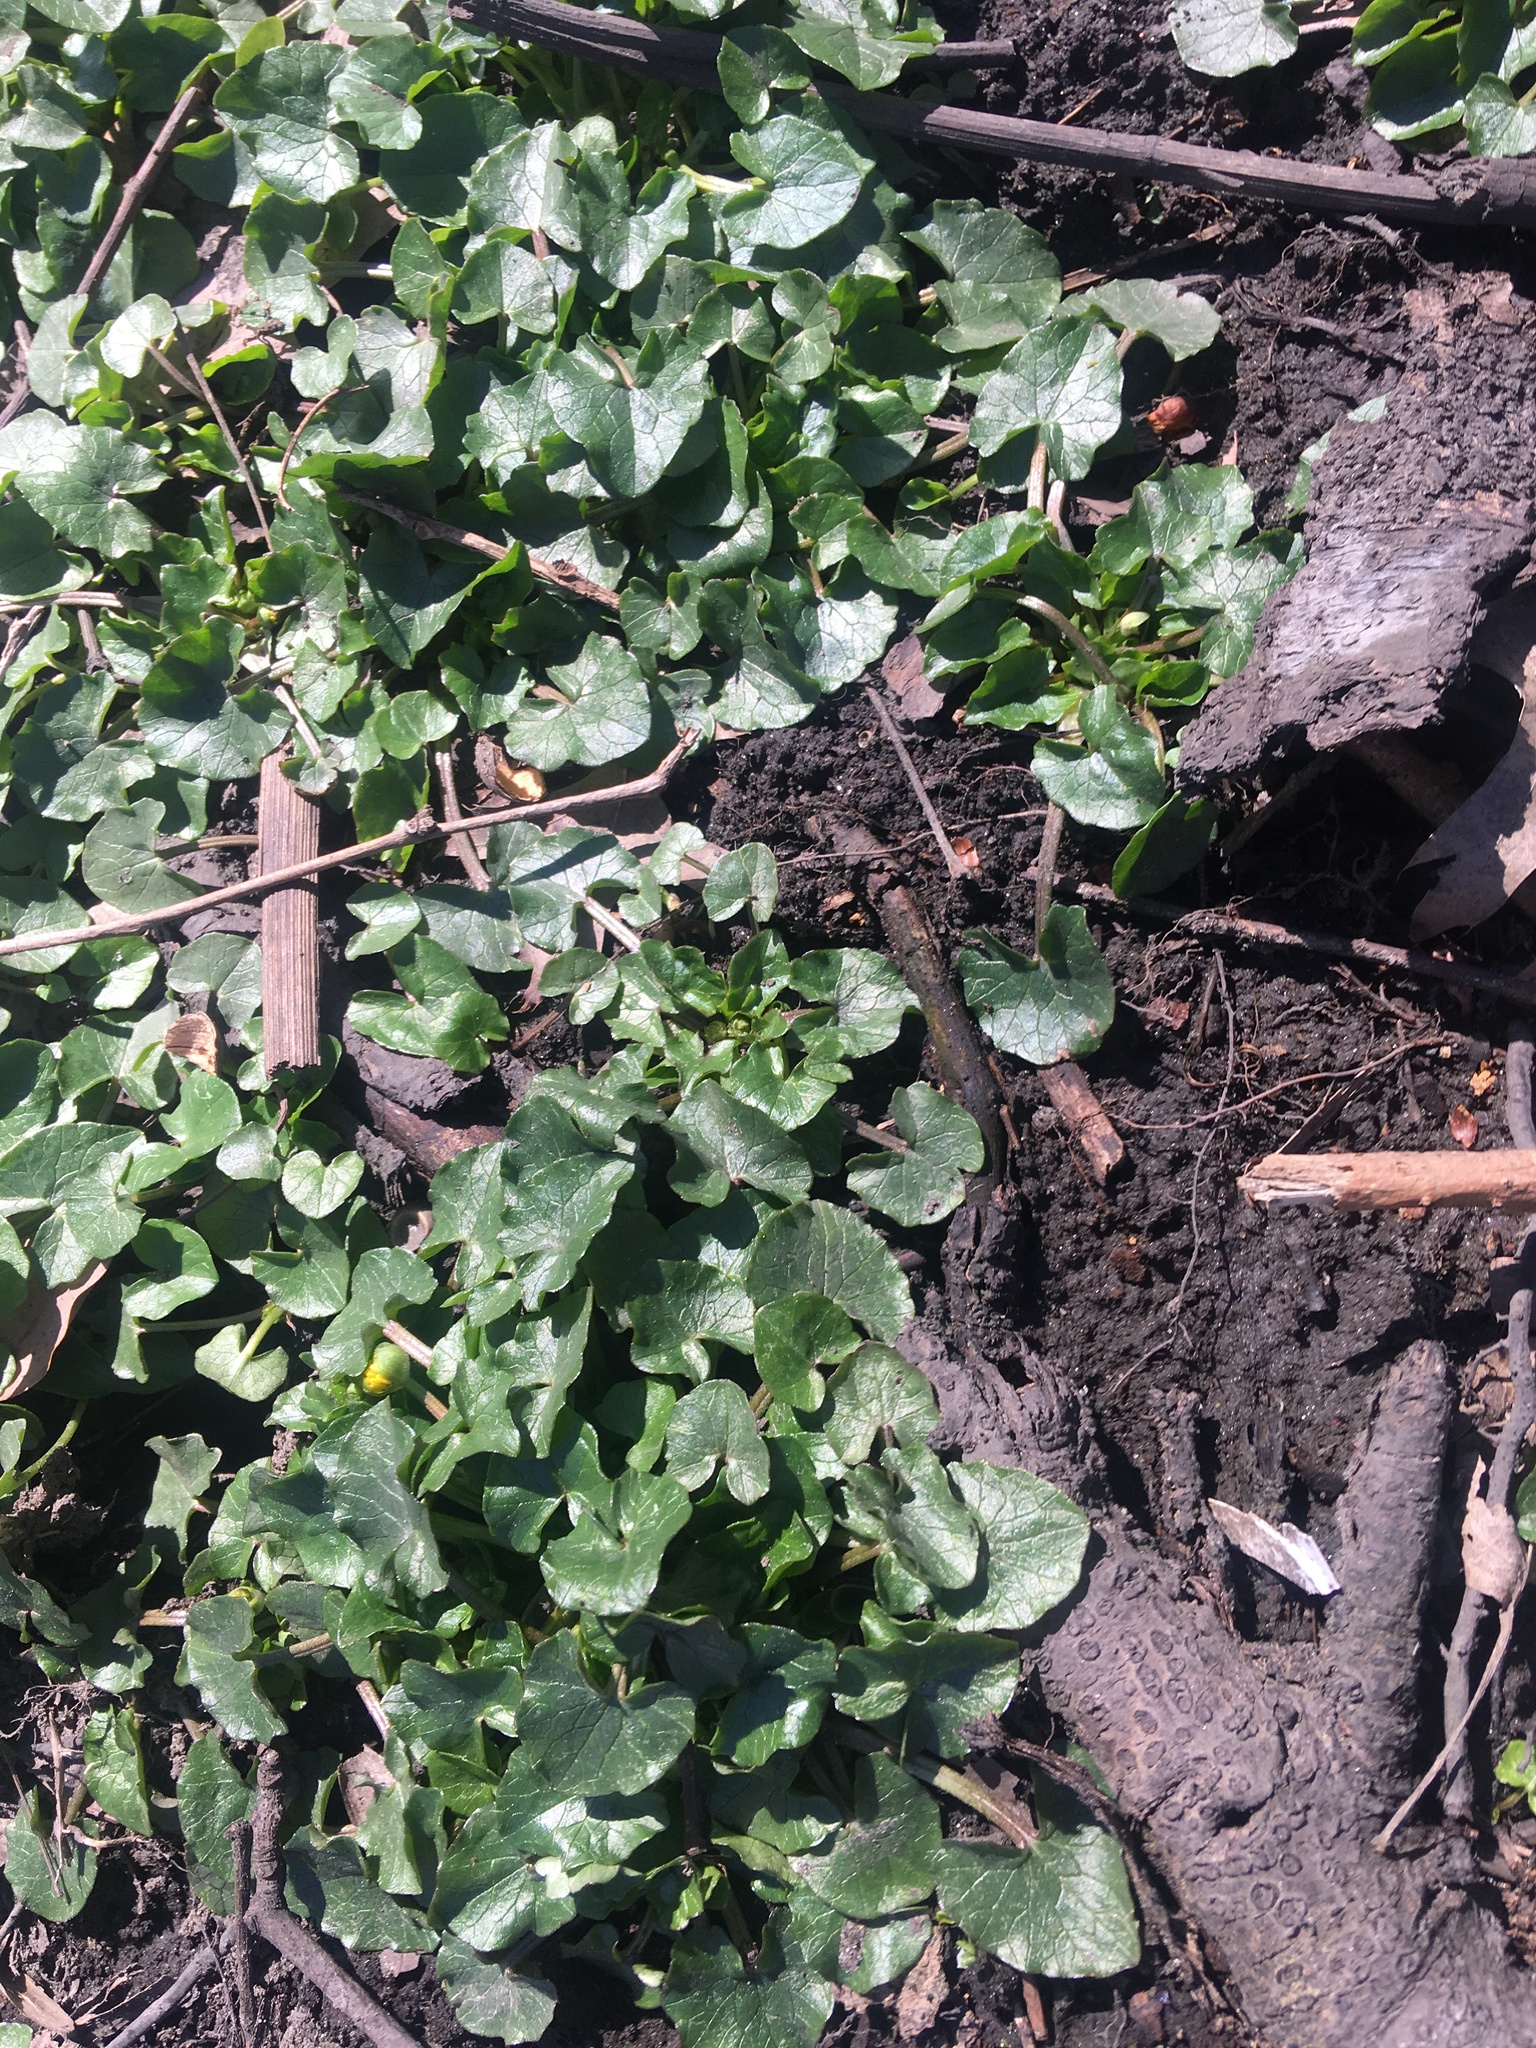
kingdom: Plantae
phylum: Tracheophyta
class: Magnoliopsida
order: Ranunculales
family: Ranunculaceae
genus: Ficaria
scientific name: Ficaria verna
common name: Lesser celandine
